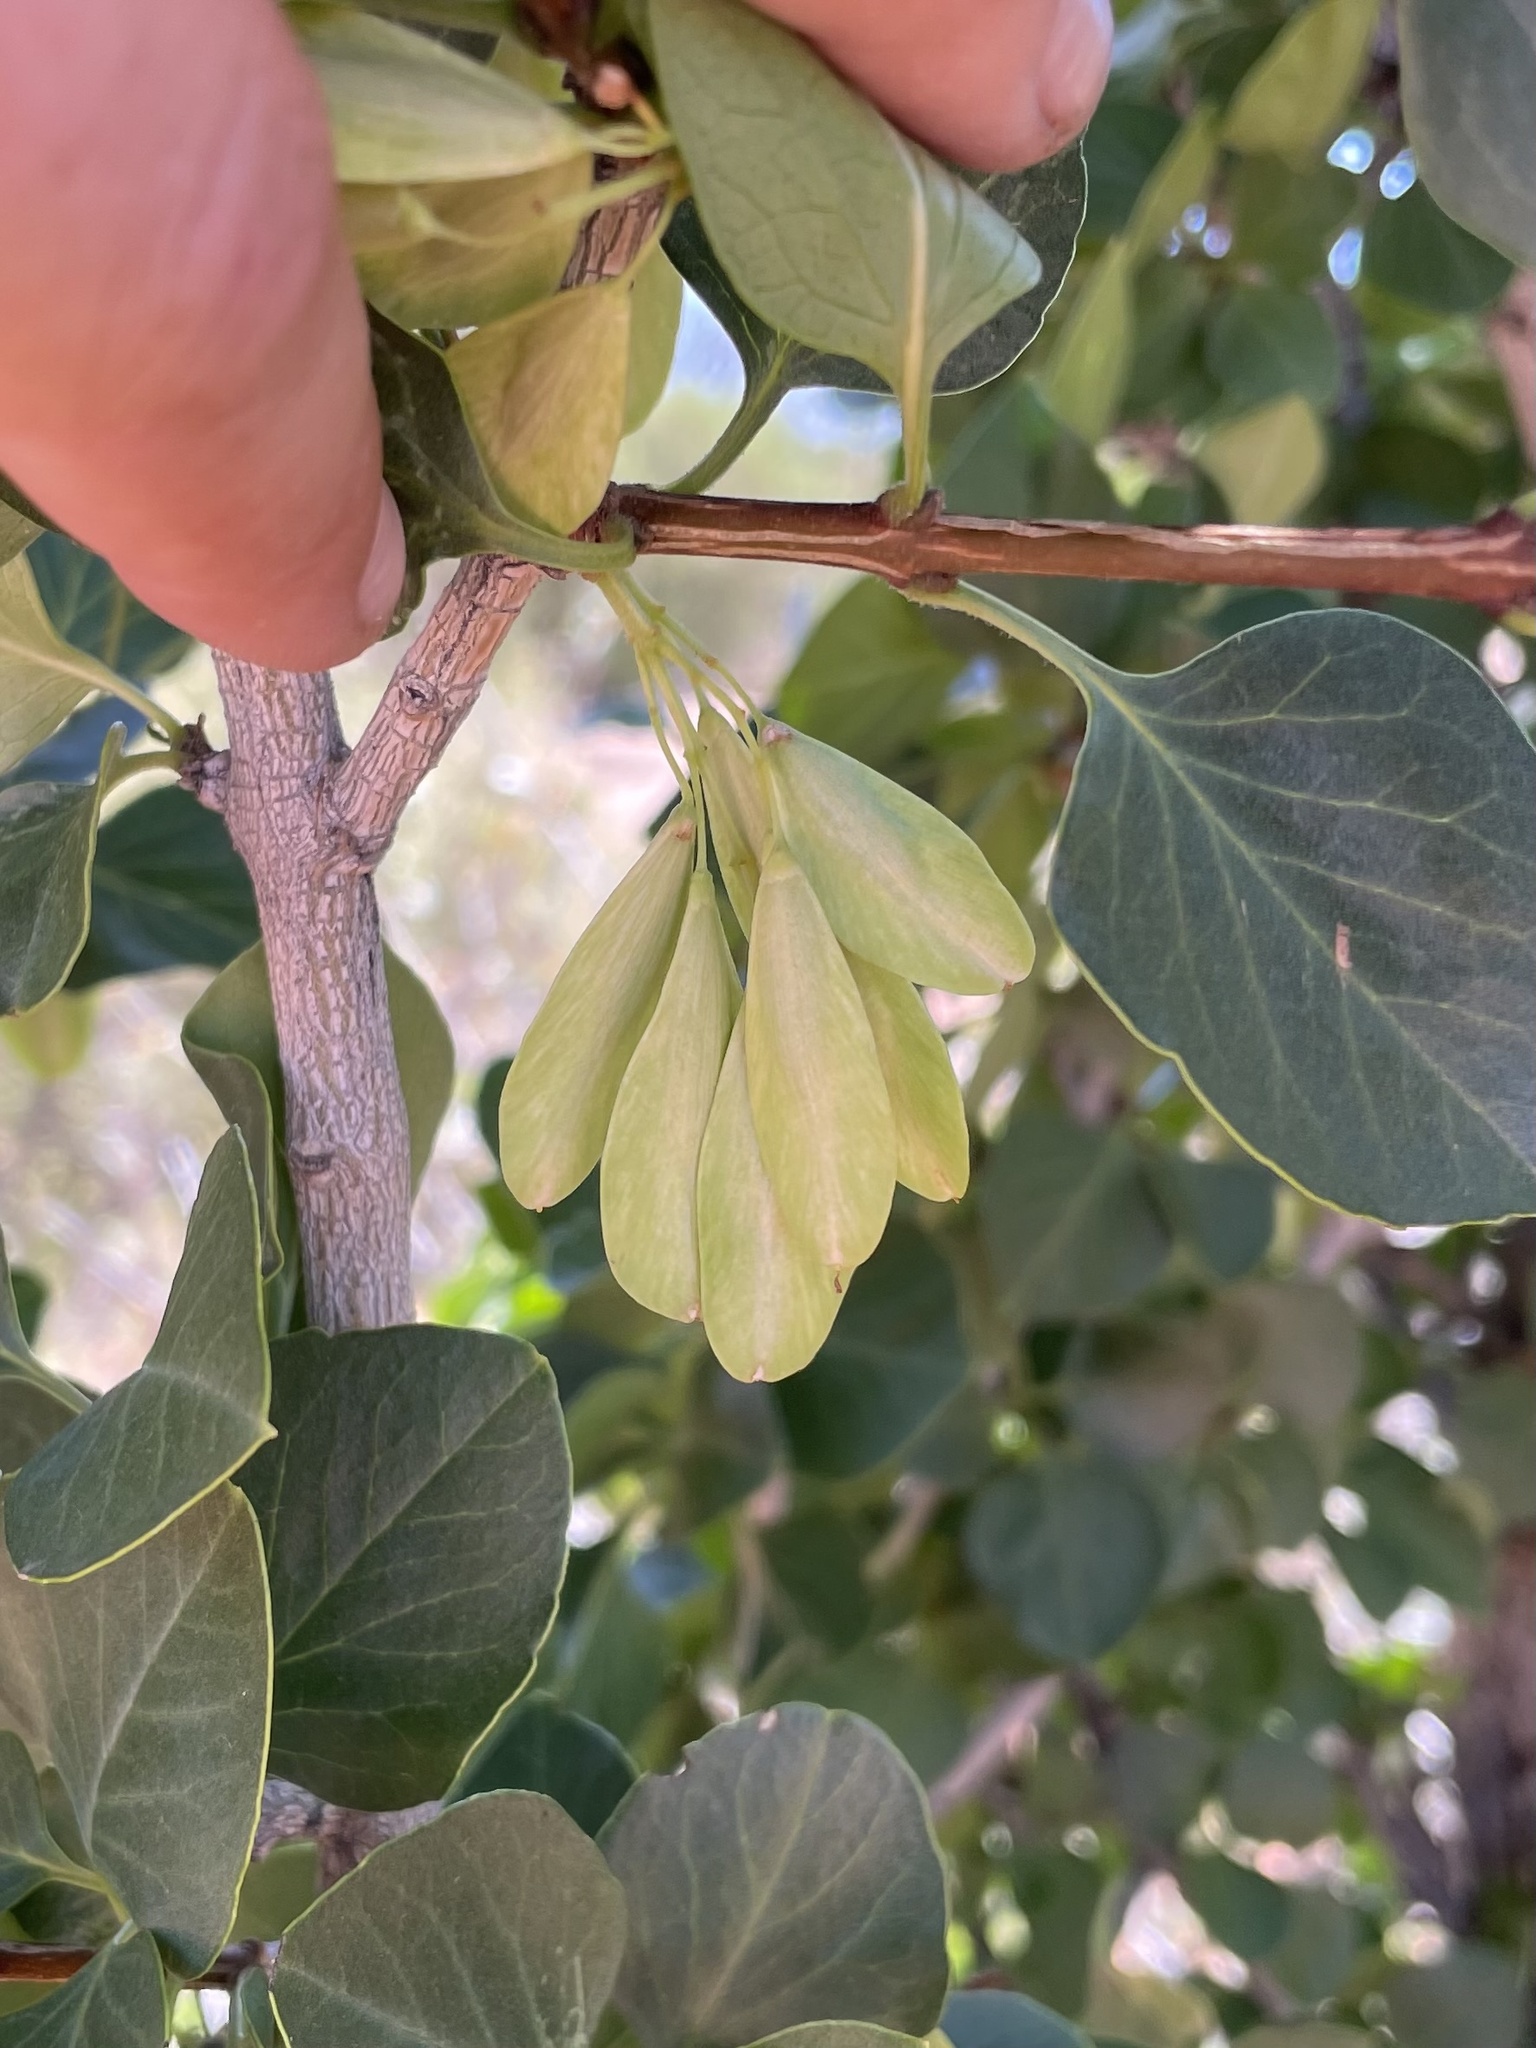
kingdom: Plantae
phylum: Tracheophyta
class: Magnoliopsida
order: Lamiales
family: Oleaceae
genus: Fraxinus
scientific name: Fraxinus anomala
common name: Utah ash
